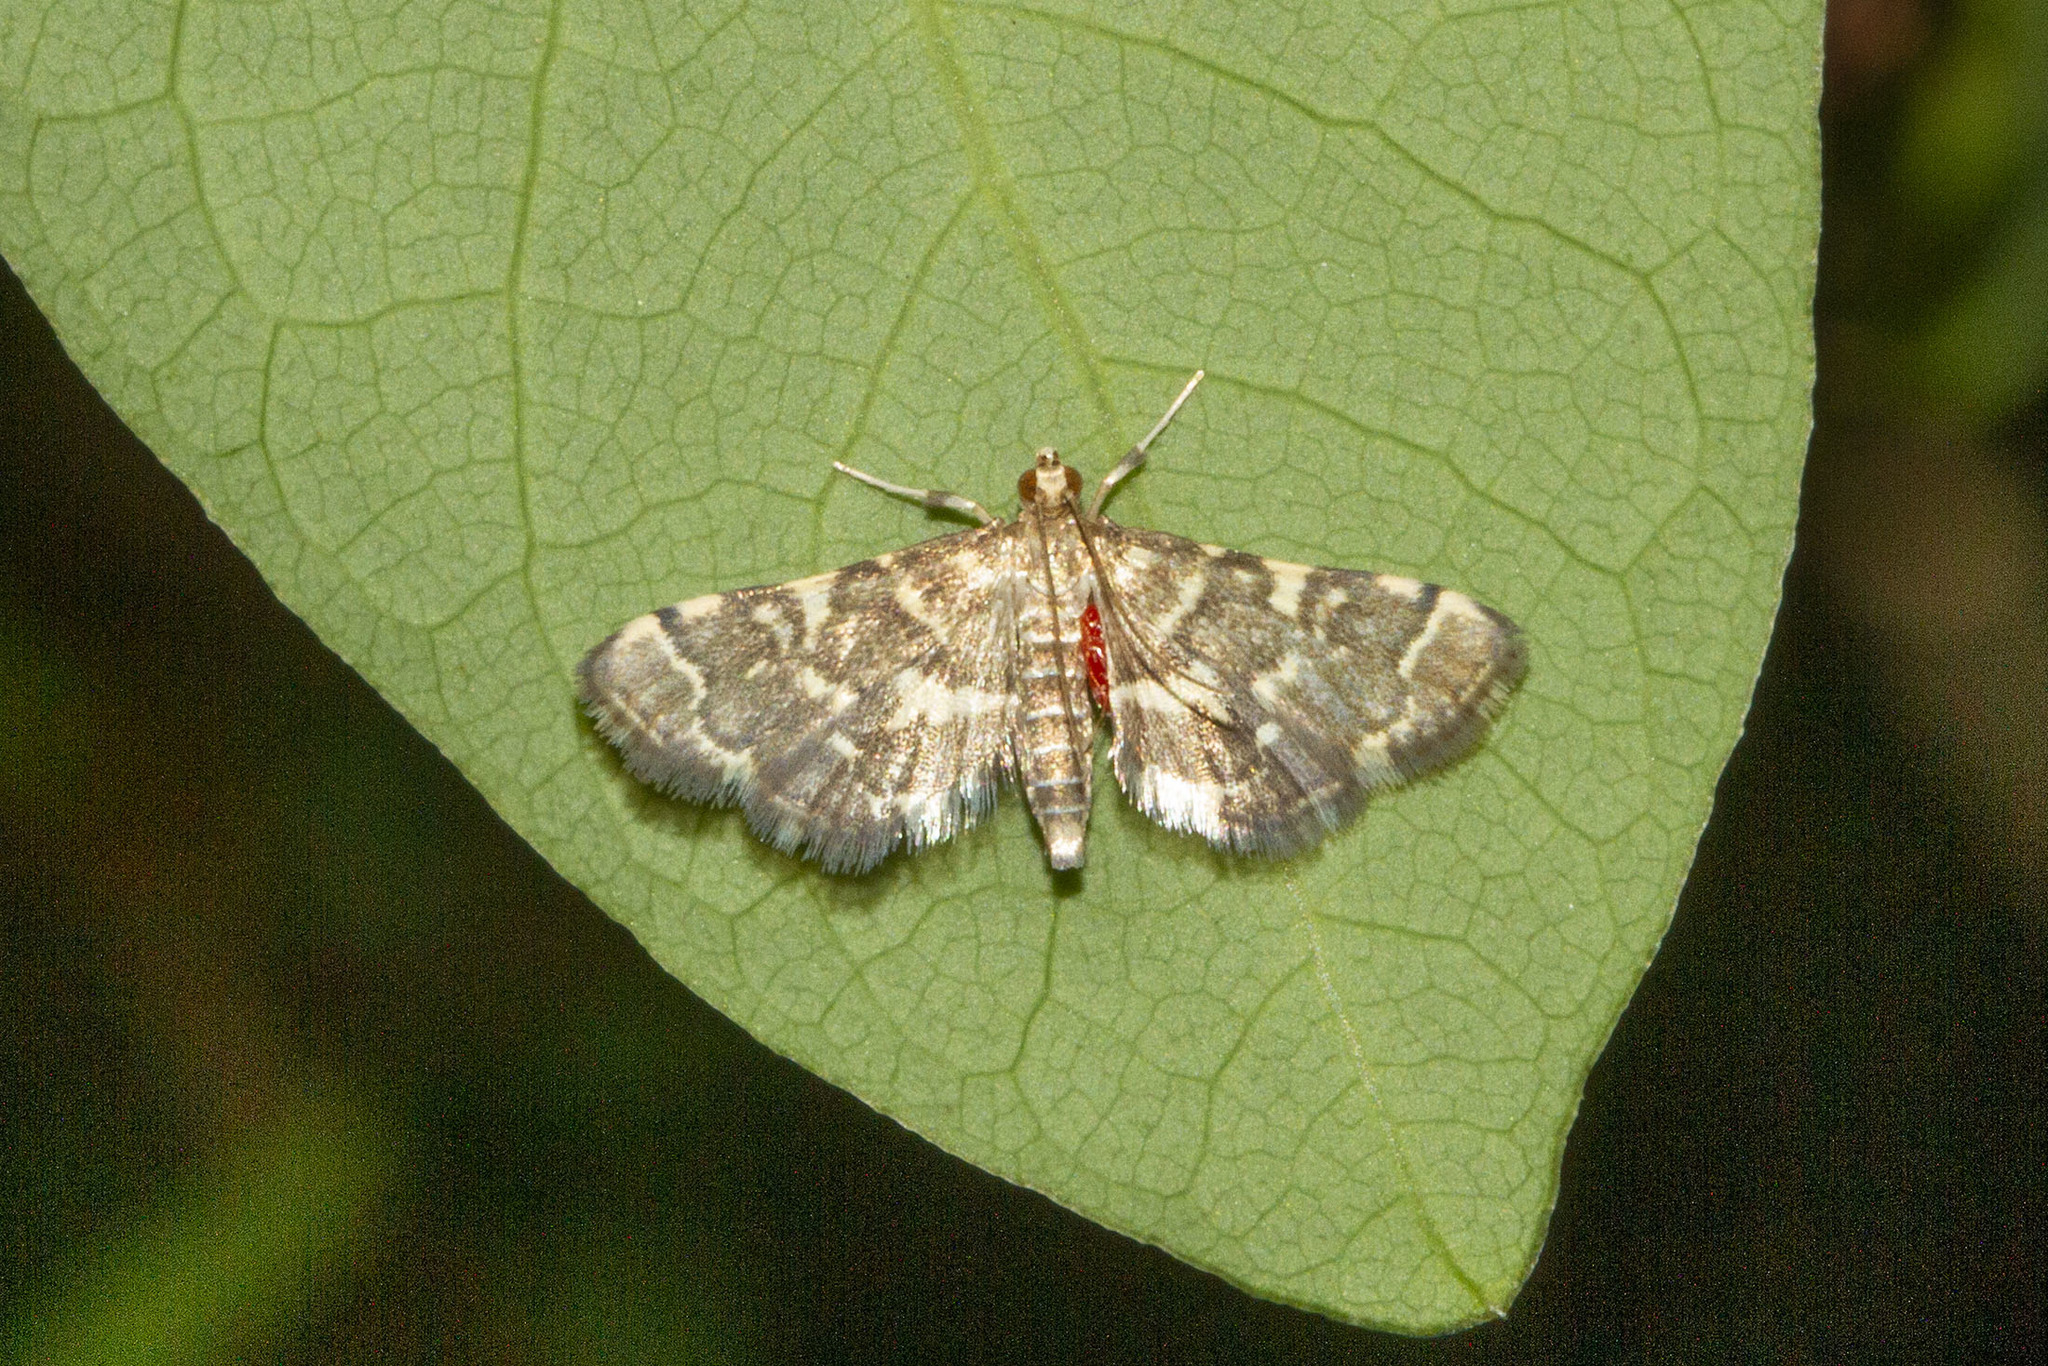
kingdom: Animalia
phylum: Arthropoda
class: Insecta
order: Lepidoptera
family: Crambidae
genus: Anageshna
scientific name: Anageshna primordialis
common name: Yellow-spotted webworm moth
